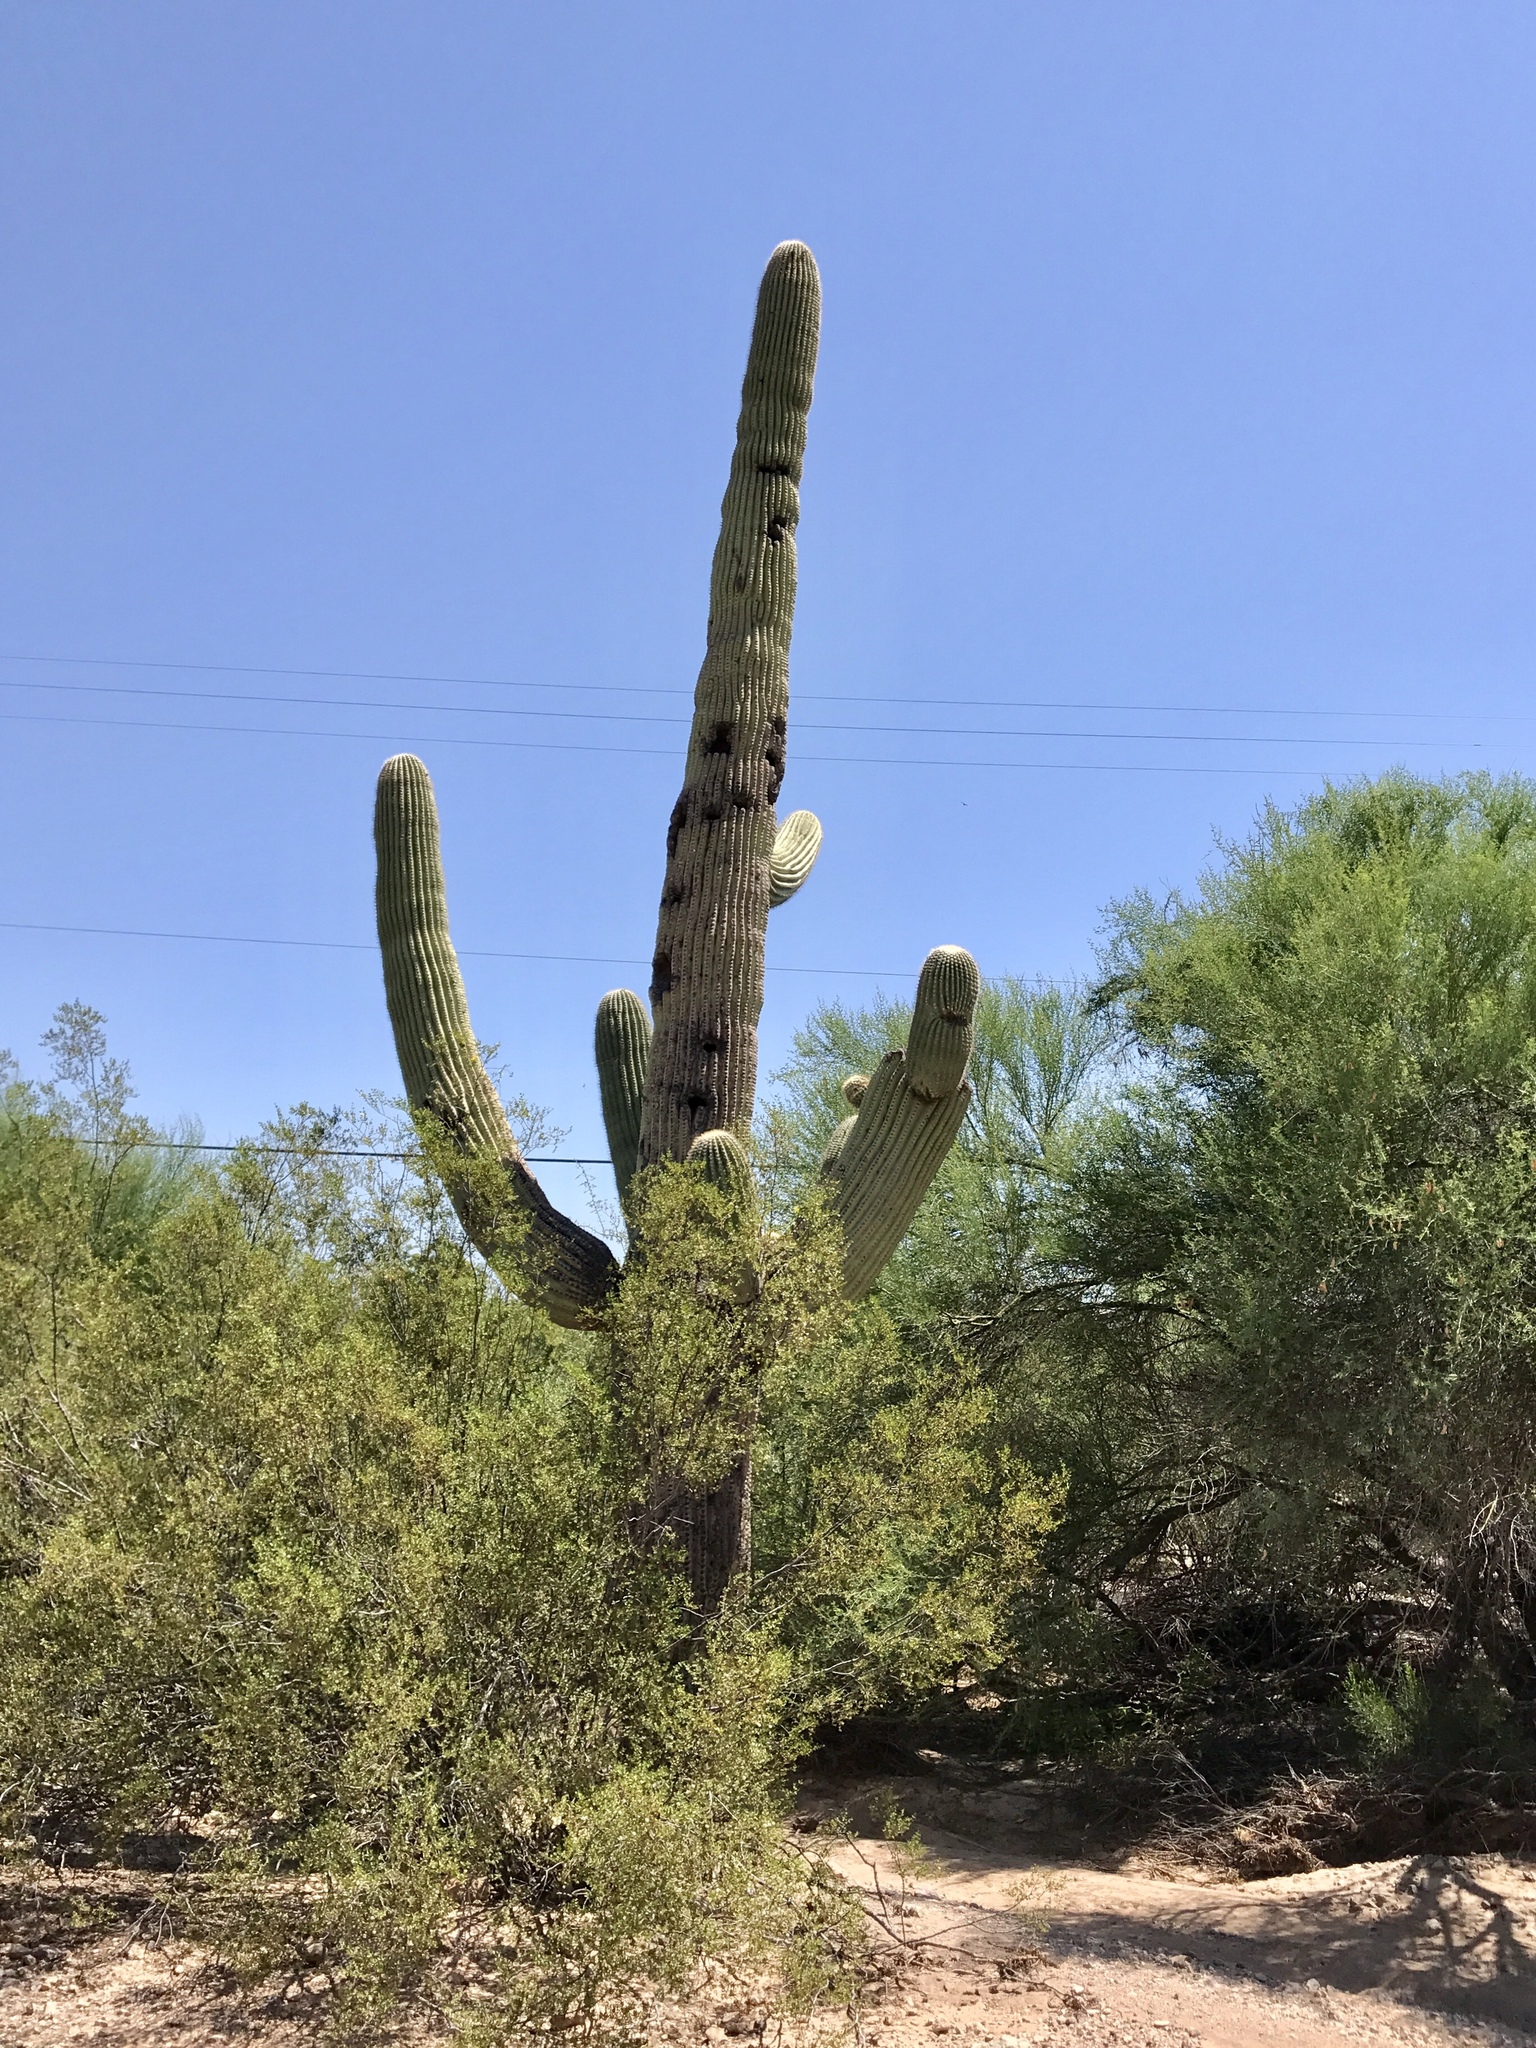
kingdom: Plantae
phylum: Tracheophyta
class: Magnoliopsida
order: Caryophyllales
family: Cactaceae
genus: Carnegiea
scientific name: Carnegiea gigantea
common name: Saguaro
